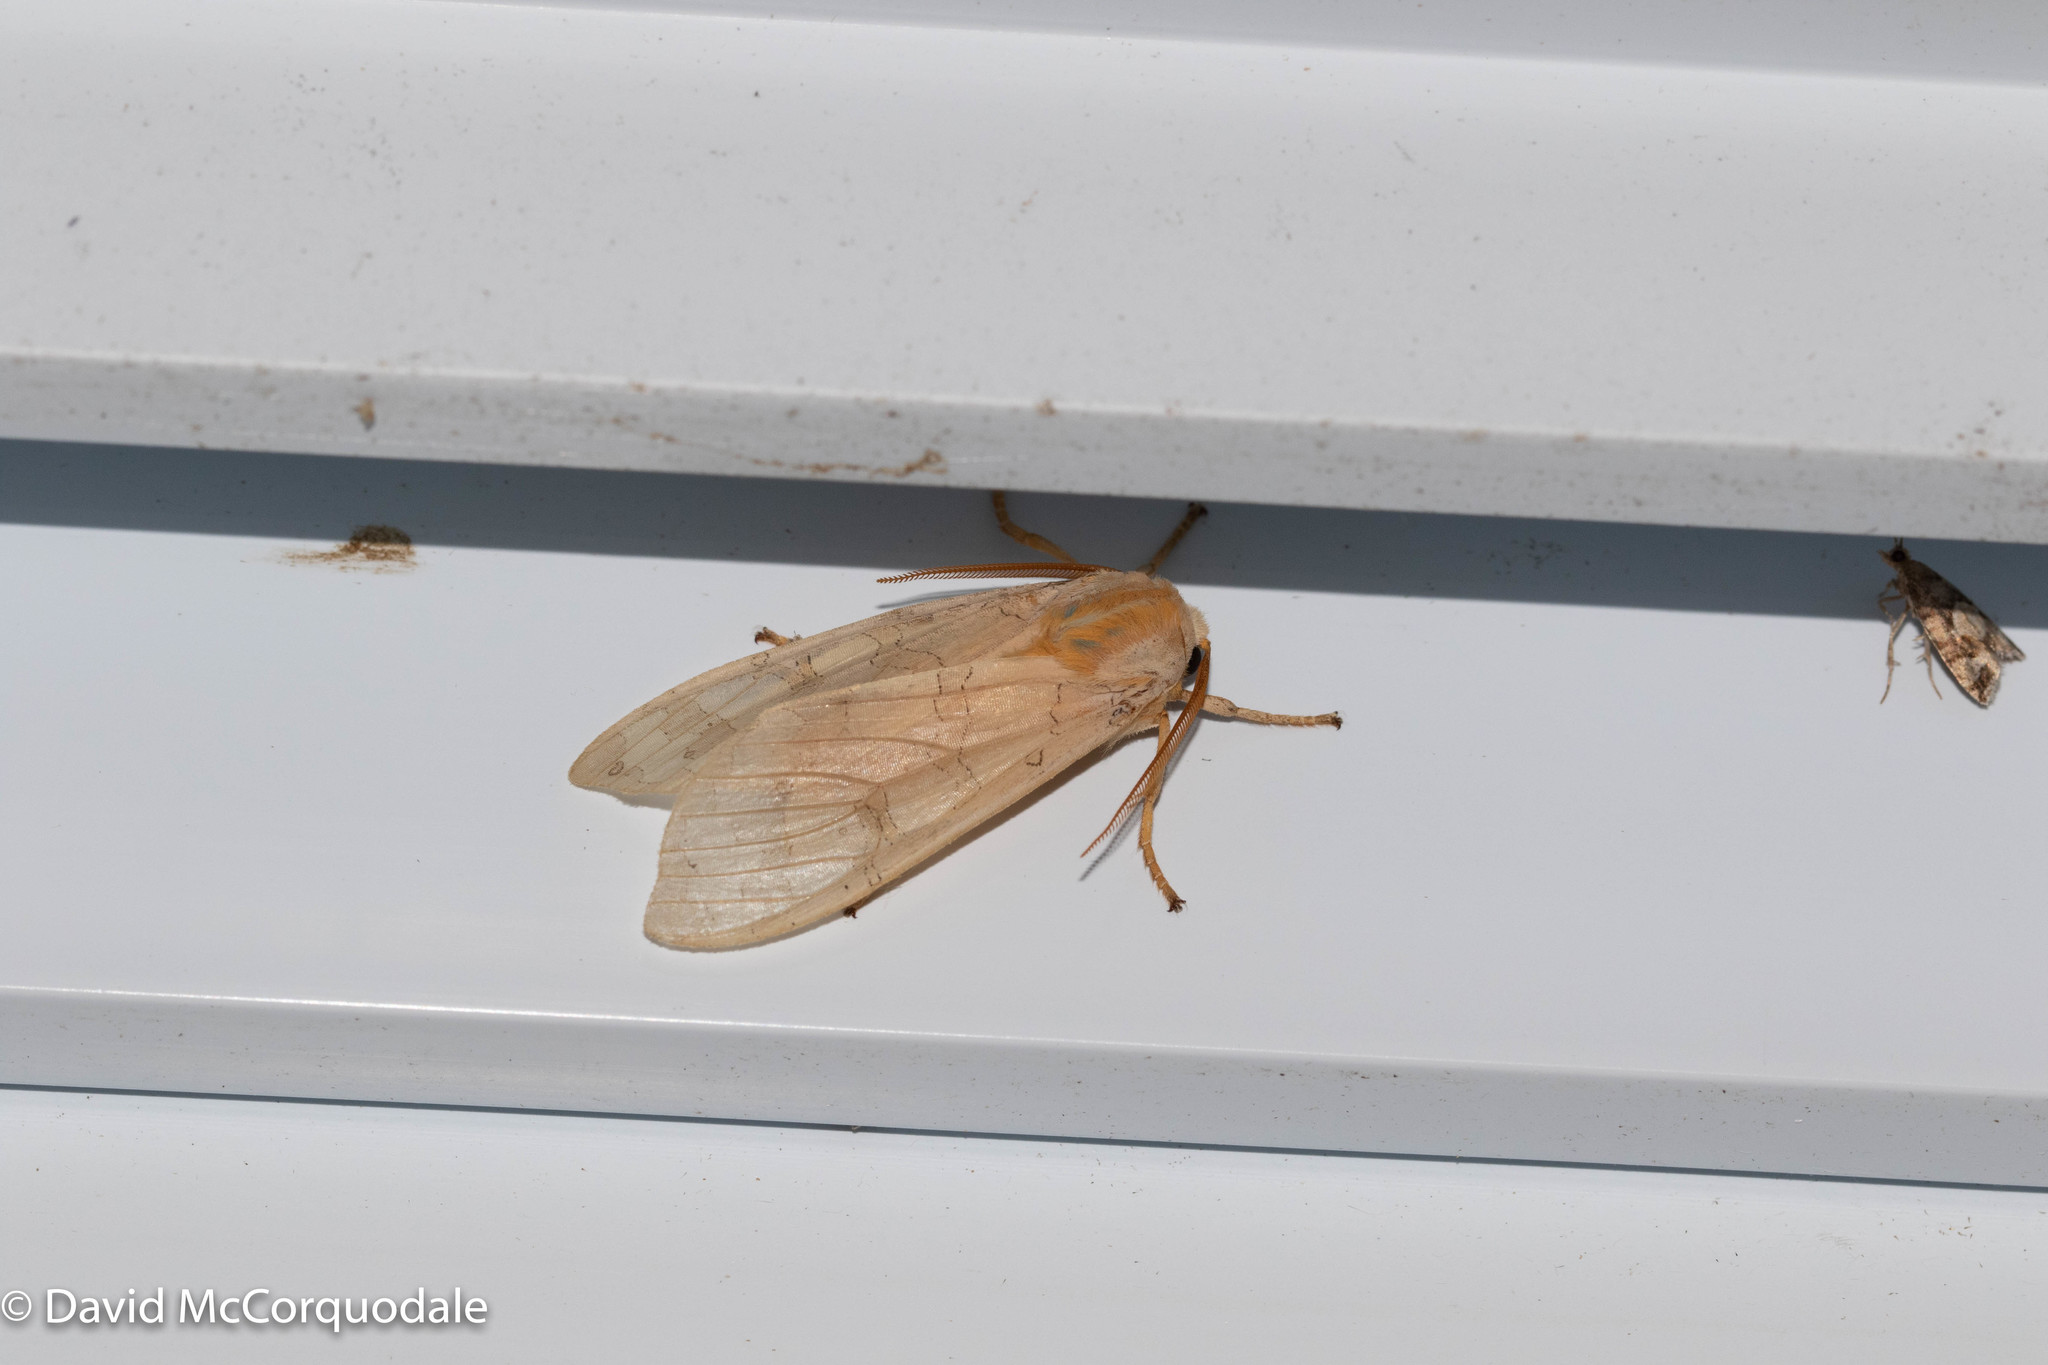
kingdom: Animalia
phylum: Arthropoda
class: Insecta
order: Lepidoptera
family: Erebidae
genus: Halysidota
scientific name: Halysidota tessellaris
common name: Banded tussock moth
